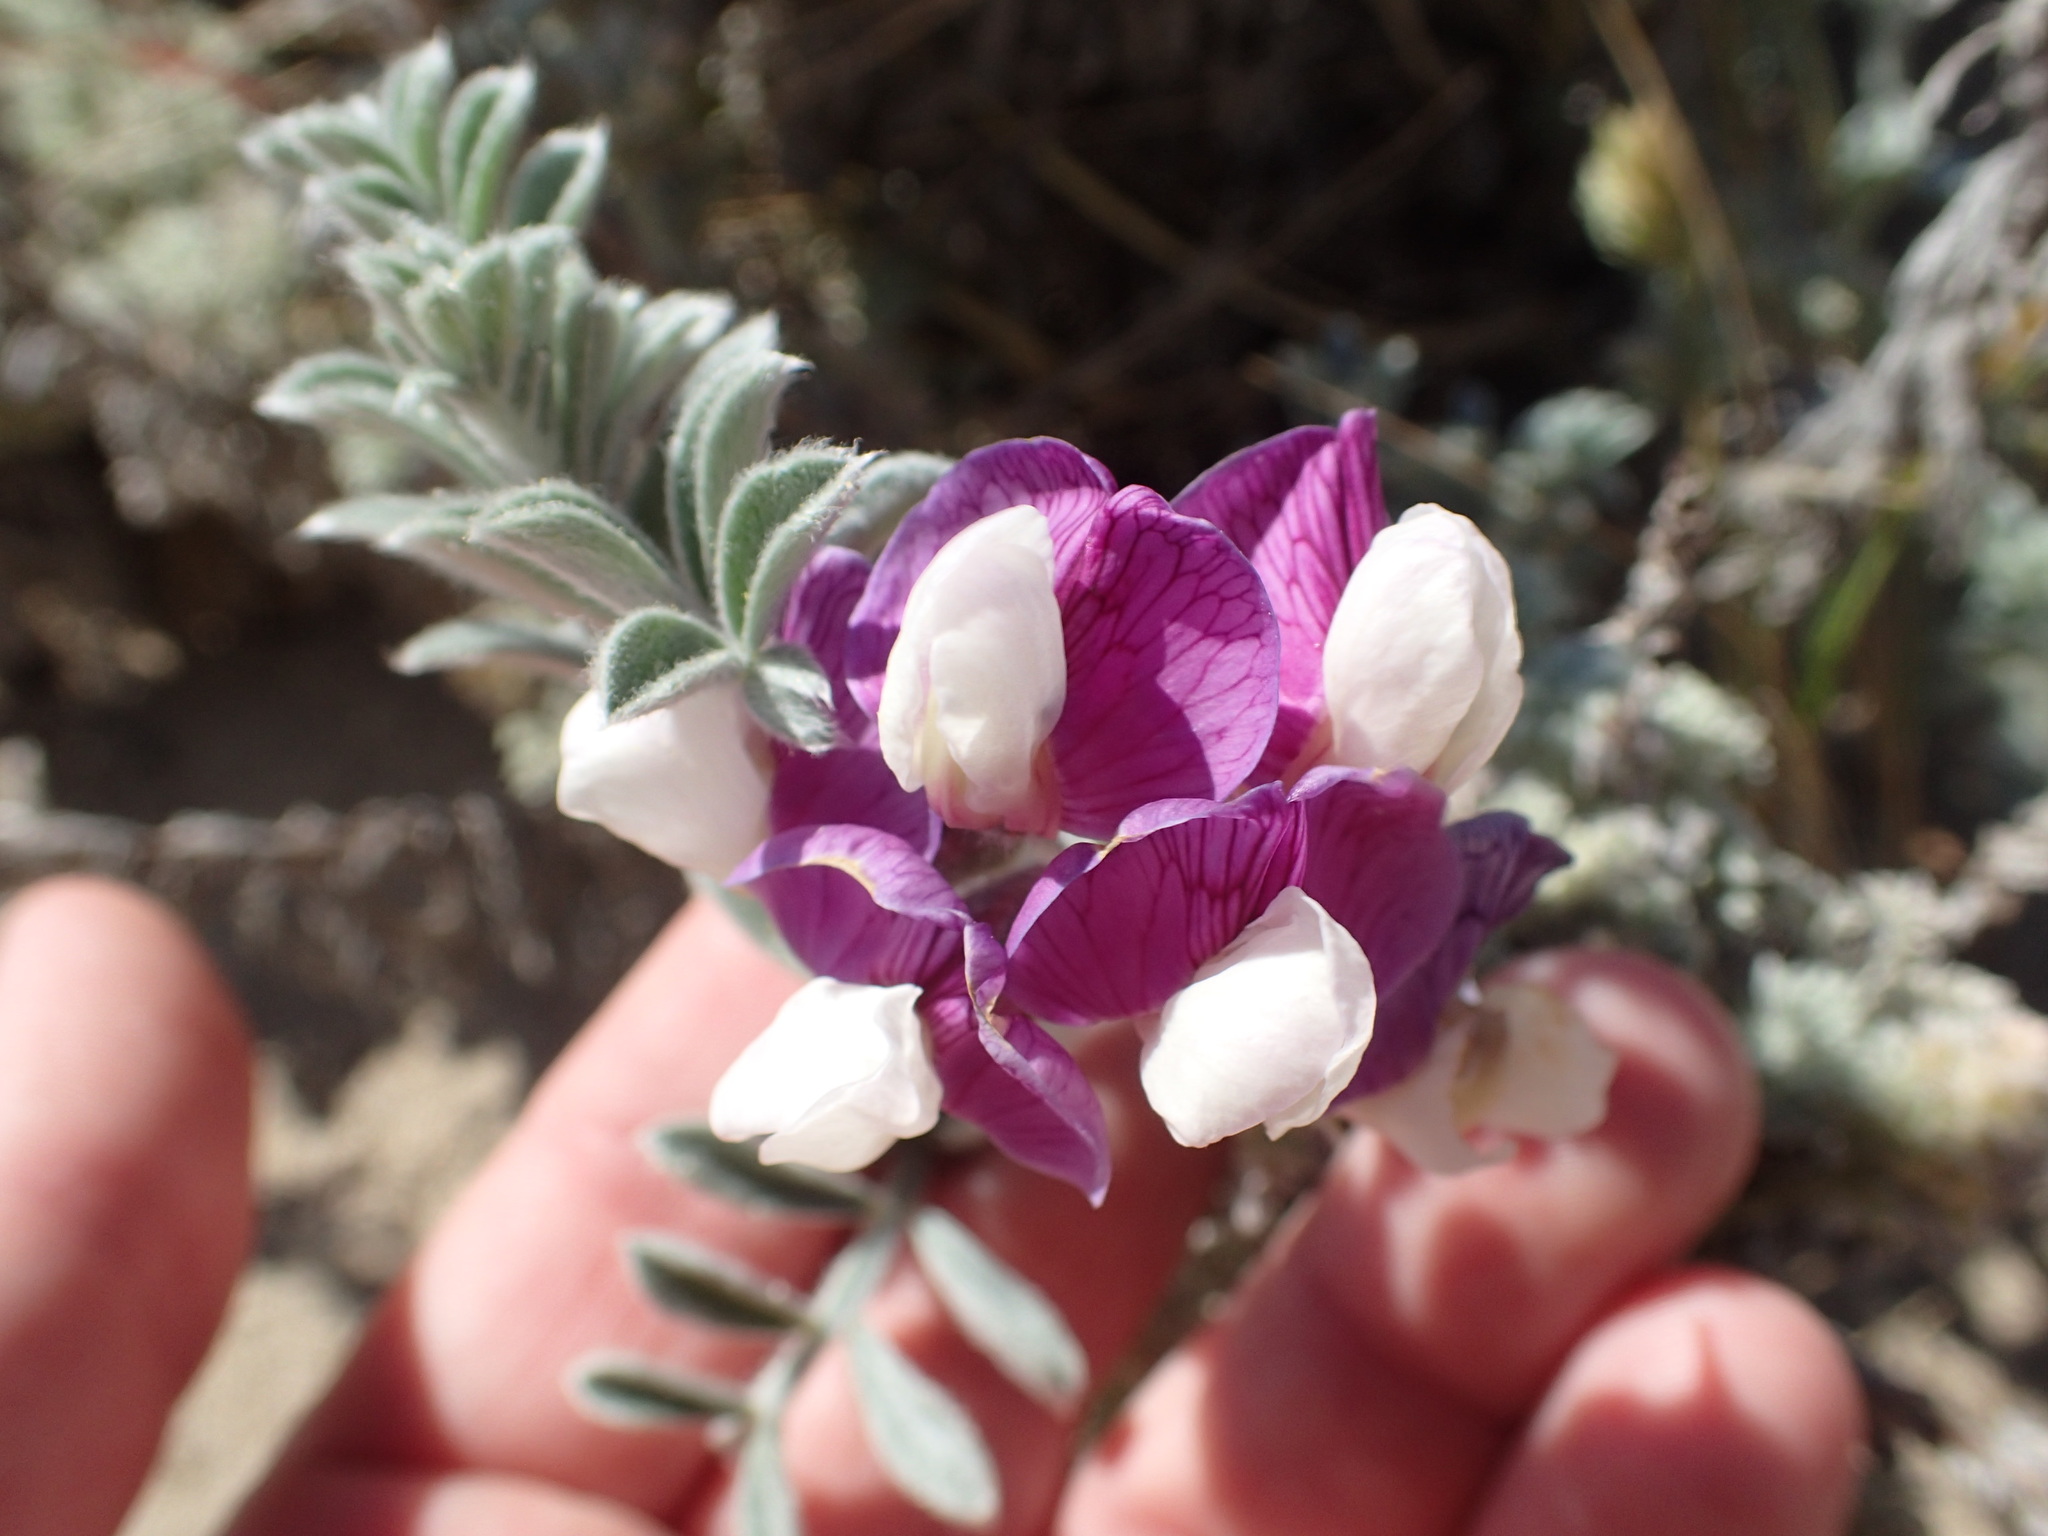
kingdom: Plantae
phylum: Tracheophyta
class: Magnoliopsida
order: Fabales
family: Fabaceae
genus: Lathyrus
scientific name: Lathyrus littoralis
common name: Dune sweet pea
